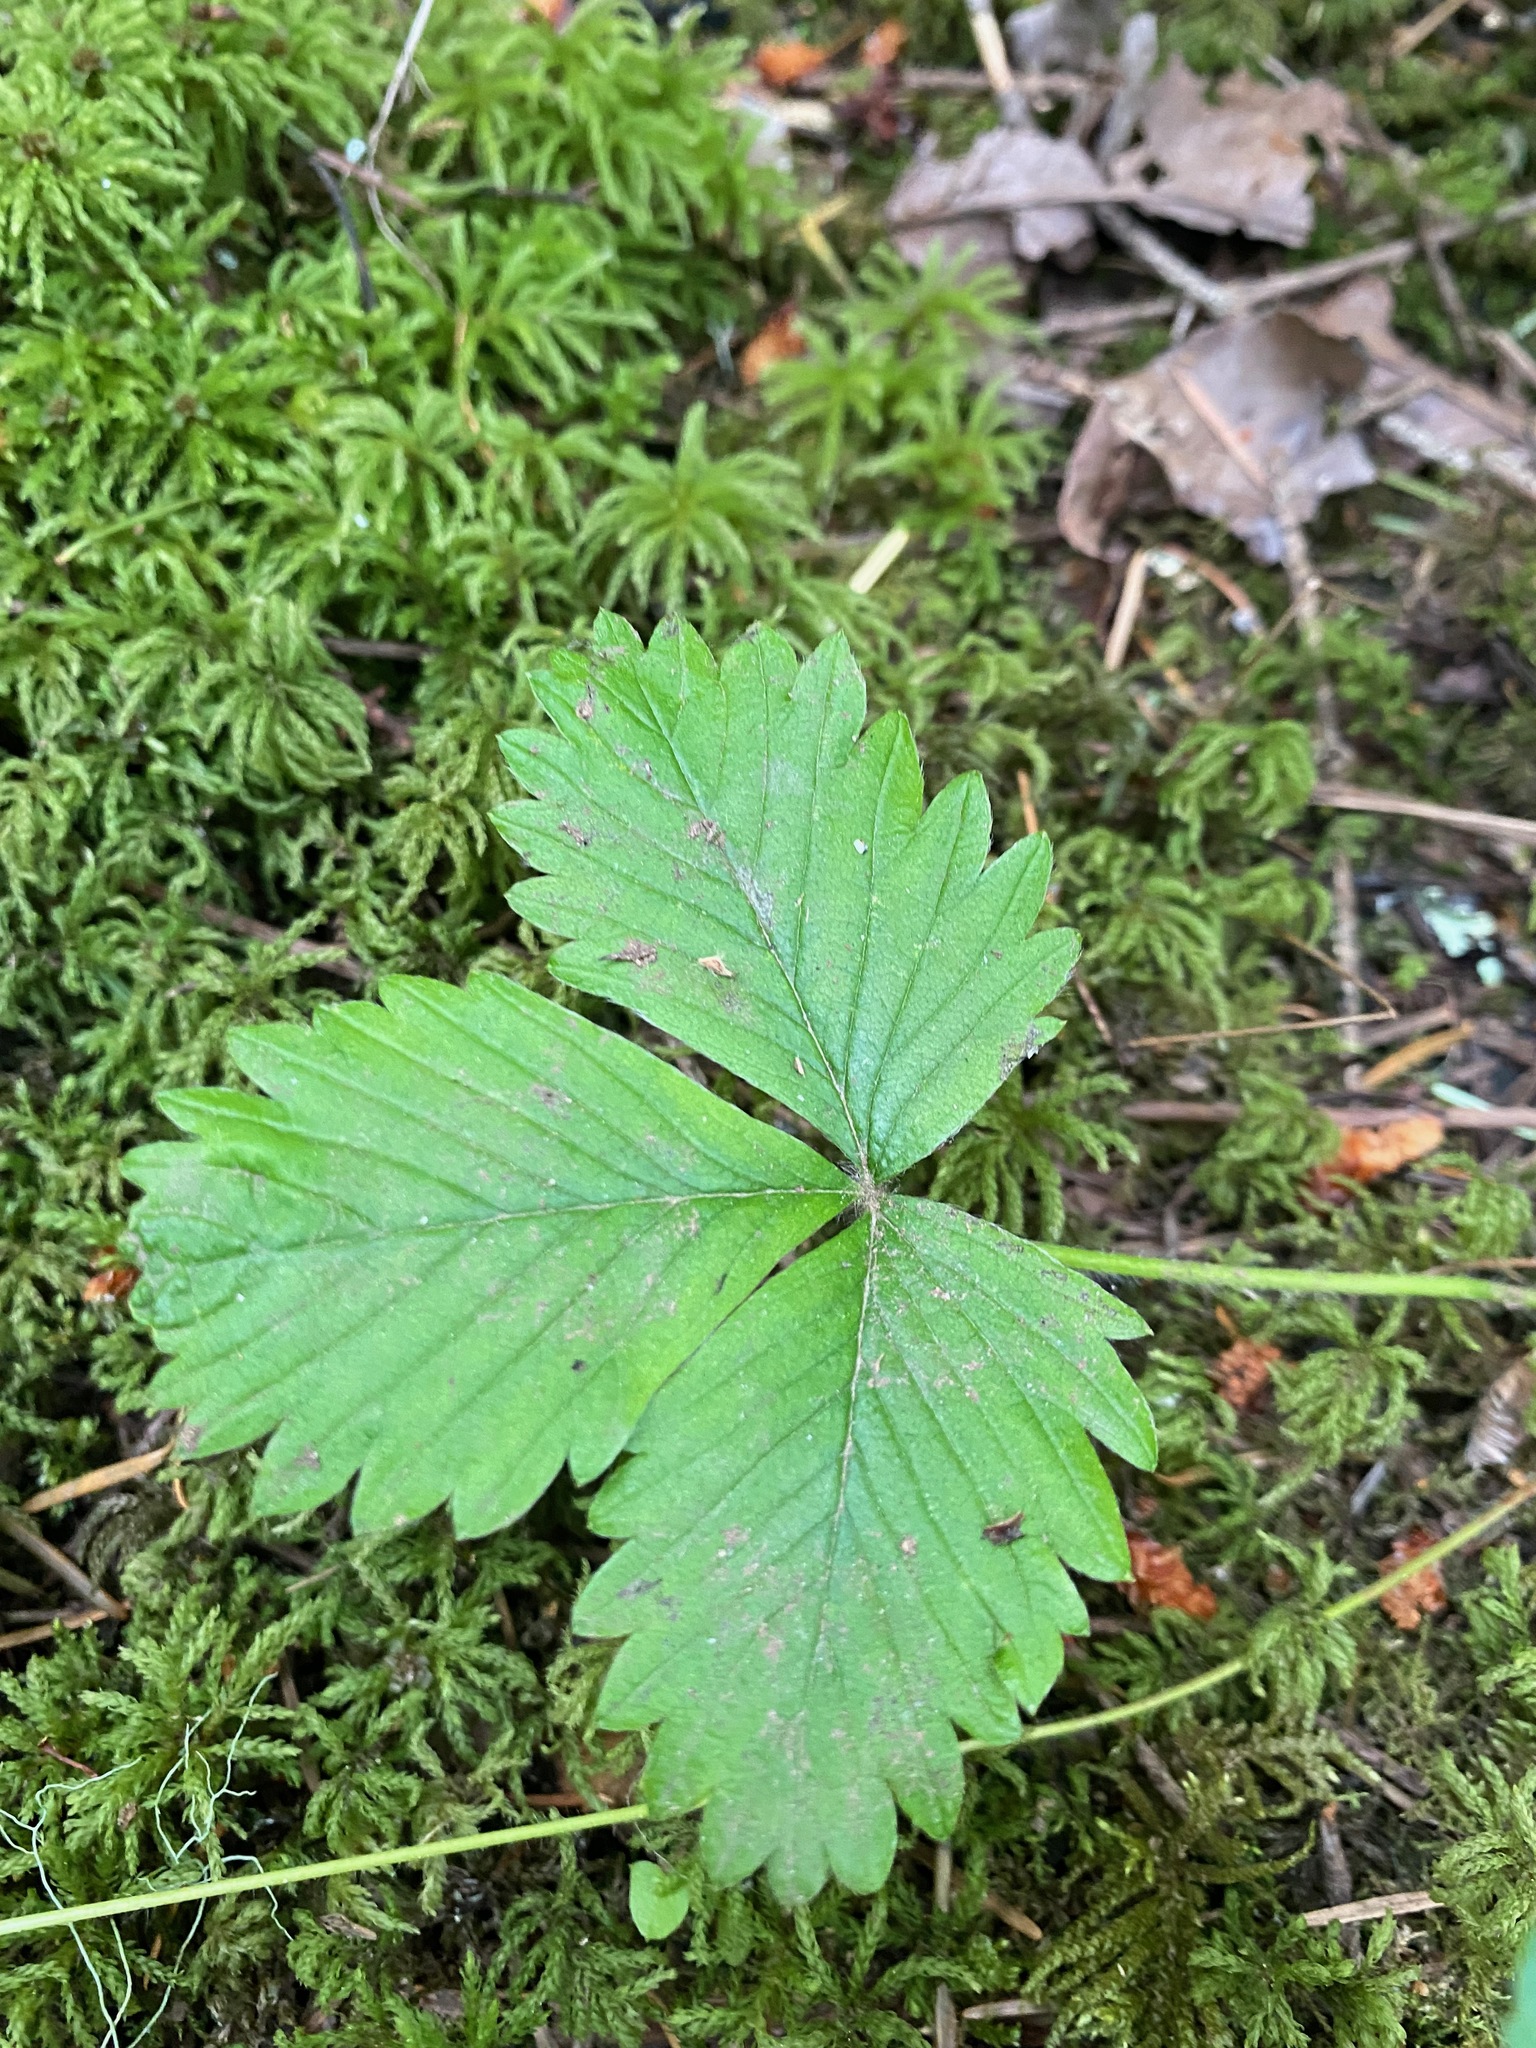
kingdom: Plantae
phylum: Tracheophyta
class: Magnoliopsida
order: Rosales
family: Rosaceae
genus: Fragaria
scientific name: Fragaria vesca
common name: Wild strawberry
